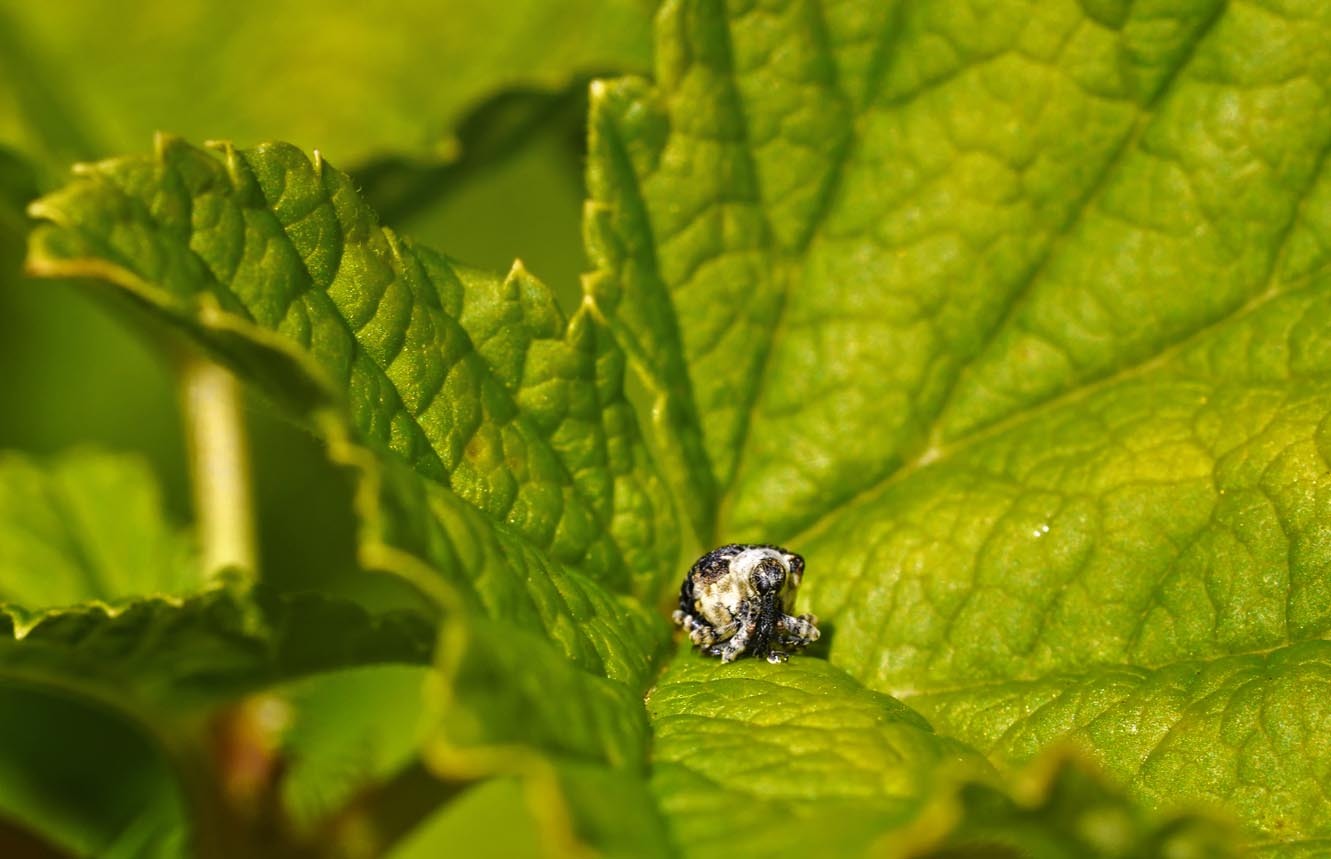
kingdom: Animalia
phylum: Arthropoda
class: Insecta
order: Coleoptera
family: Curculionidae
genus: Cionus
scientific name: Cionus scrophulariae
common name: Common figwort weevil
